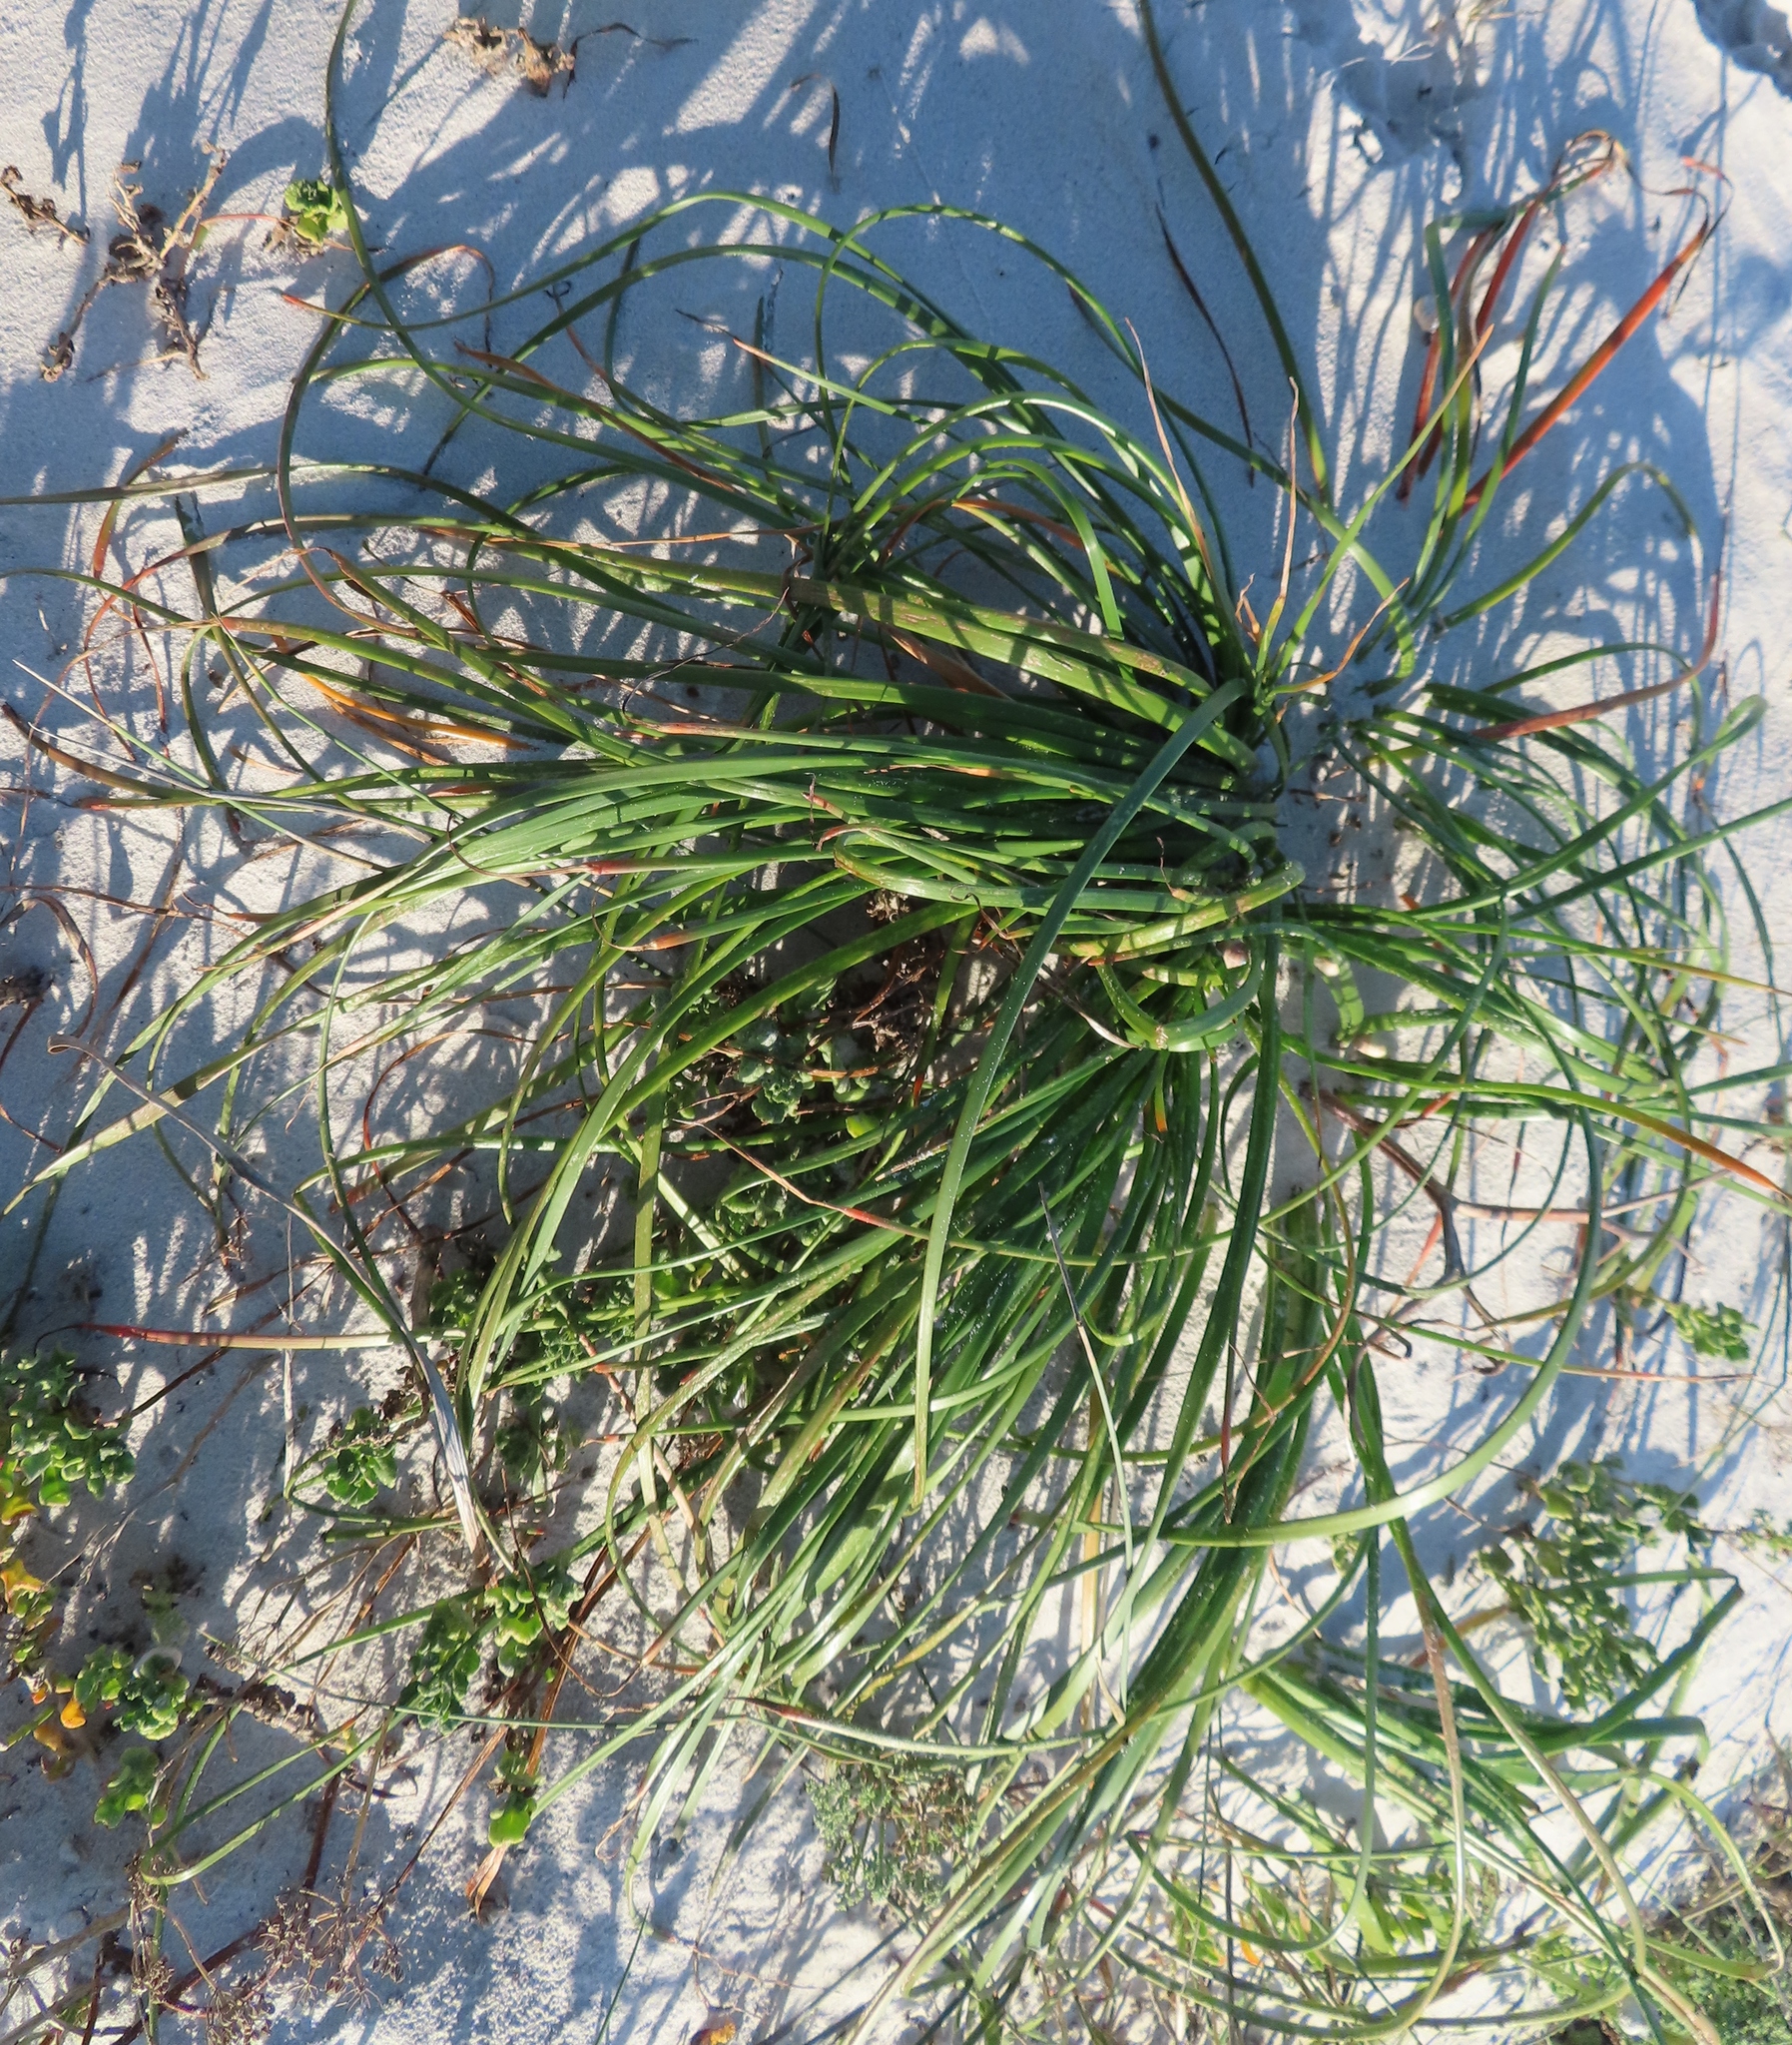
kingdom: Plantae
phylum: Tracheophyta
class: Liliopsida
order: Asparagales
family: Asphodelaceae
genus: Trachyandra
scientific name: Trachyandra divaricata
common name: Dune onionweed
